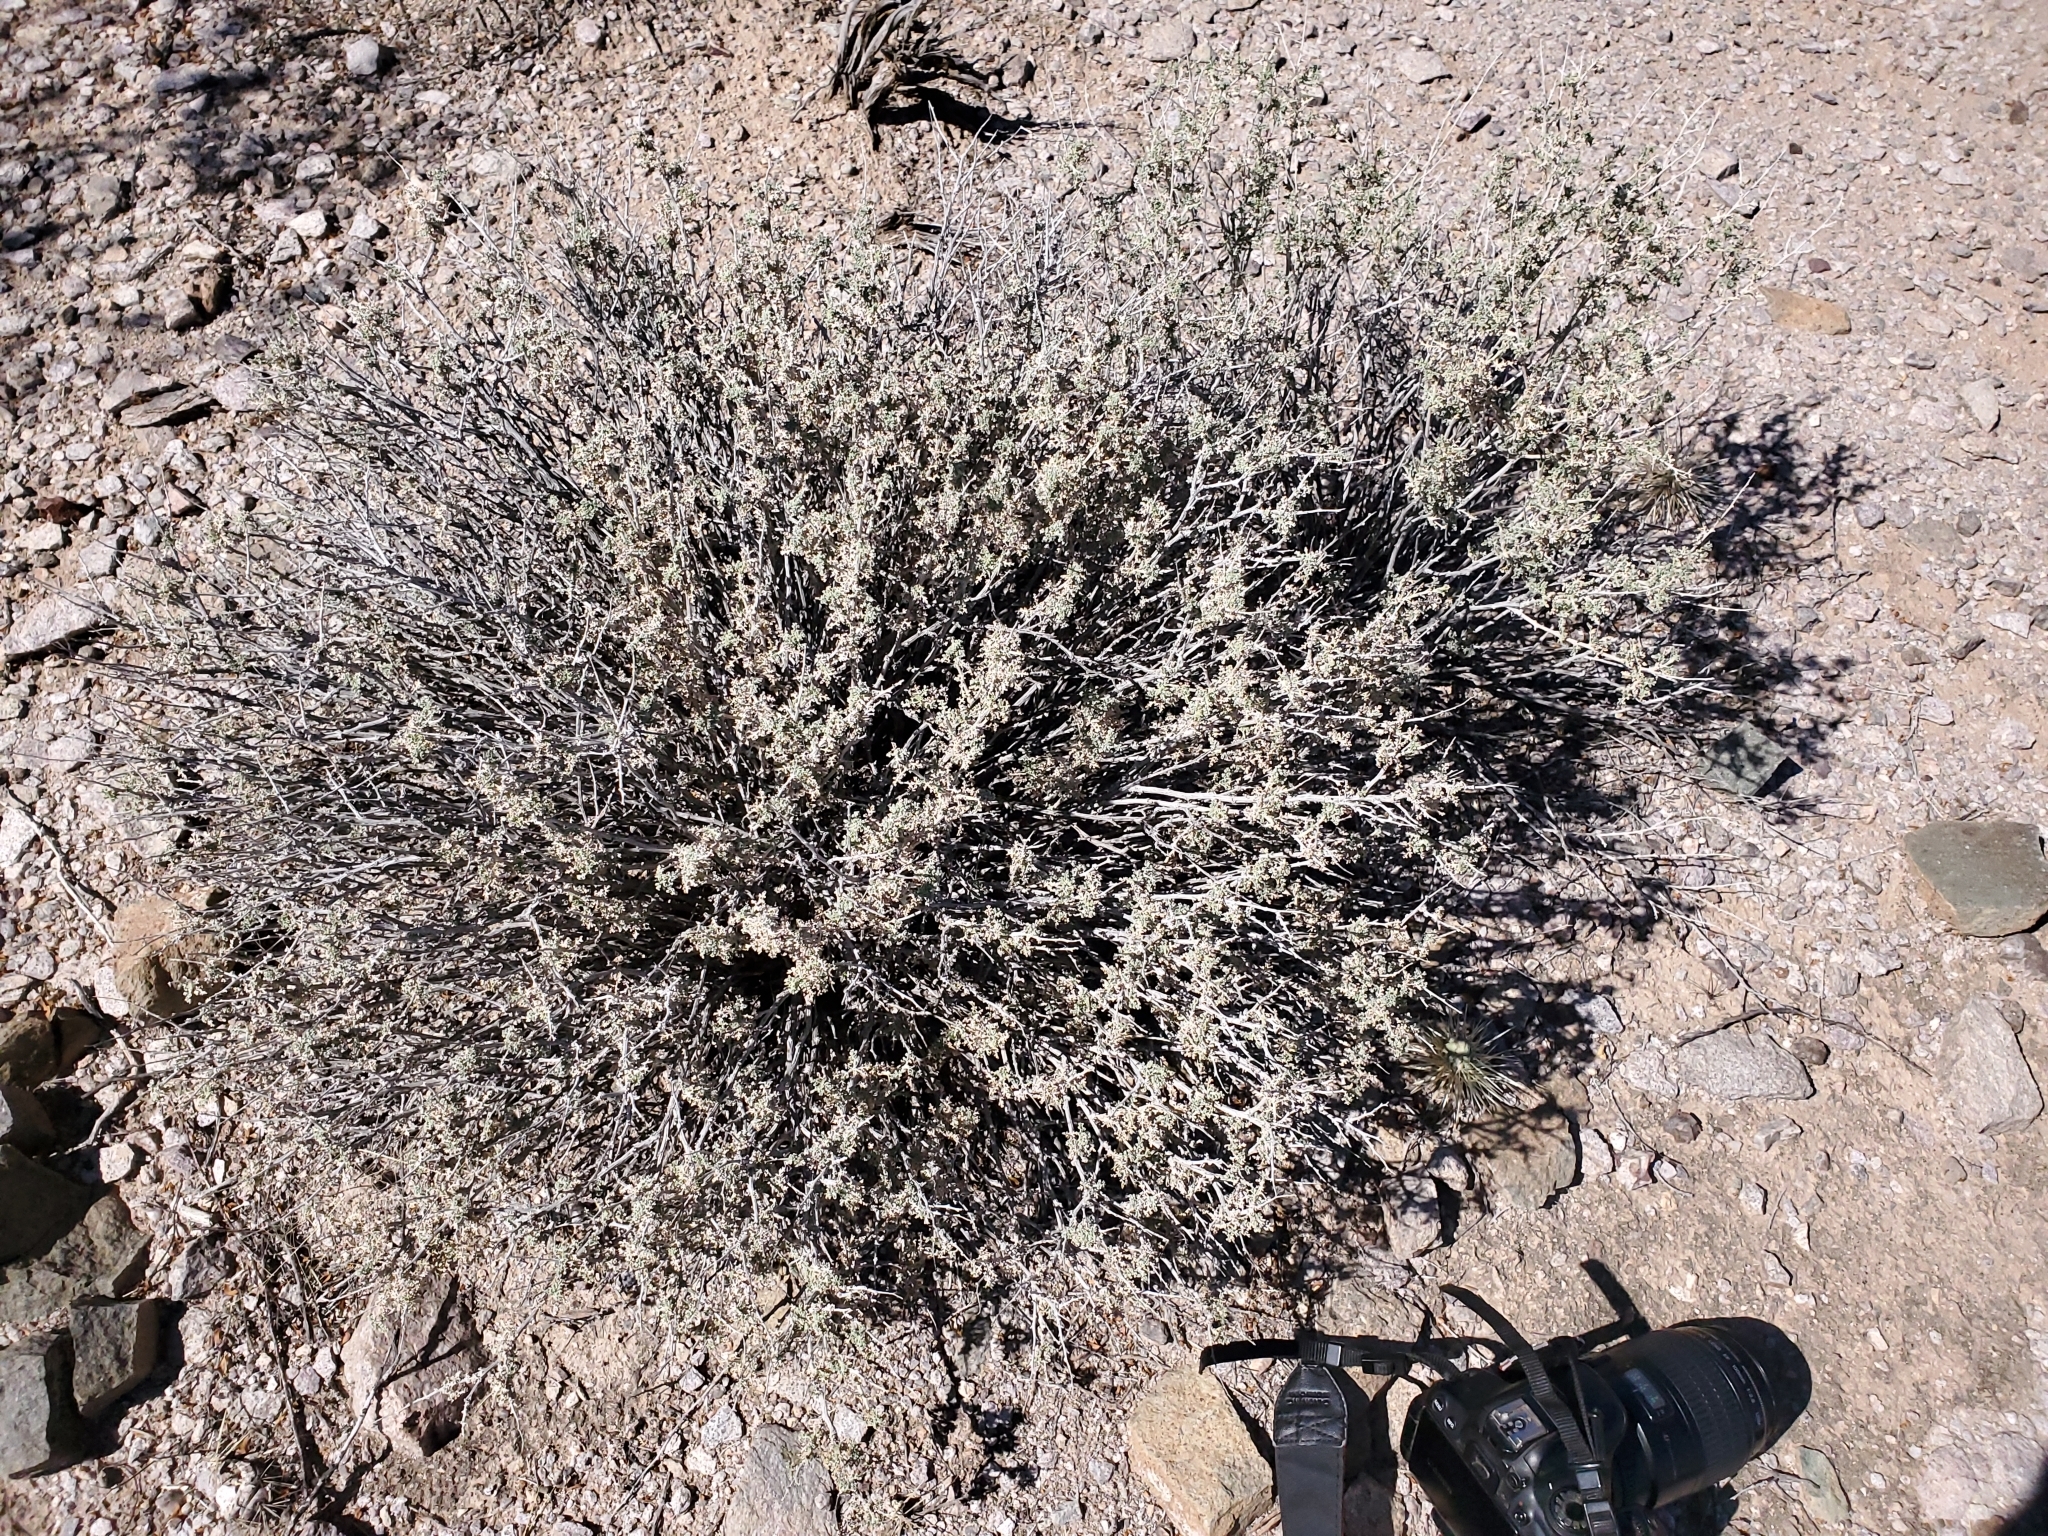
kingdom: Plantae
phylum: Tracheophyta
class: Magnoliopsida
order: Asterales
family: Asteraceae
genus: Ambrosia
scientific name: Ambrosia dumosa
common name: Bur-sage
